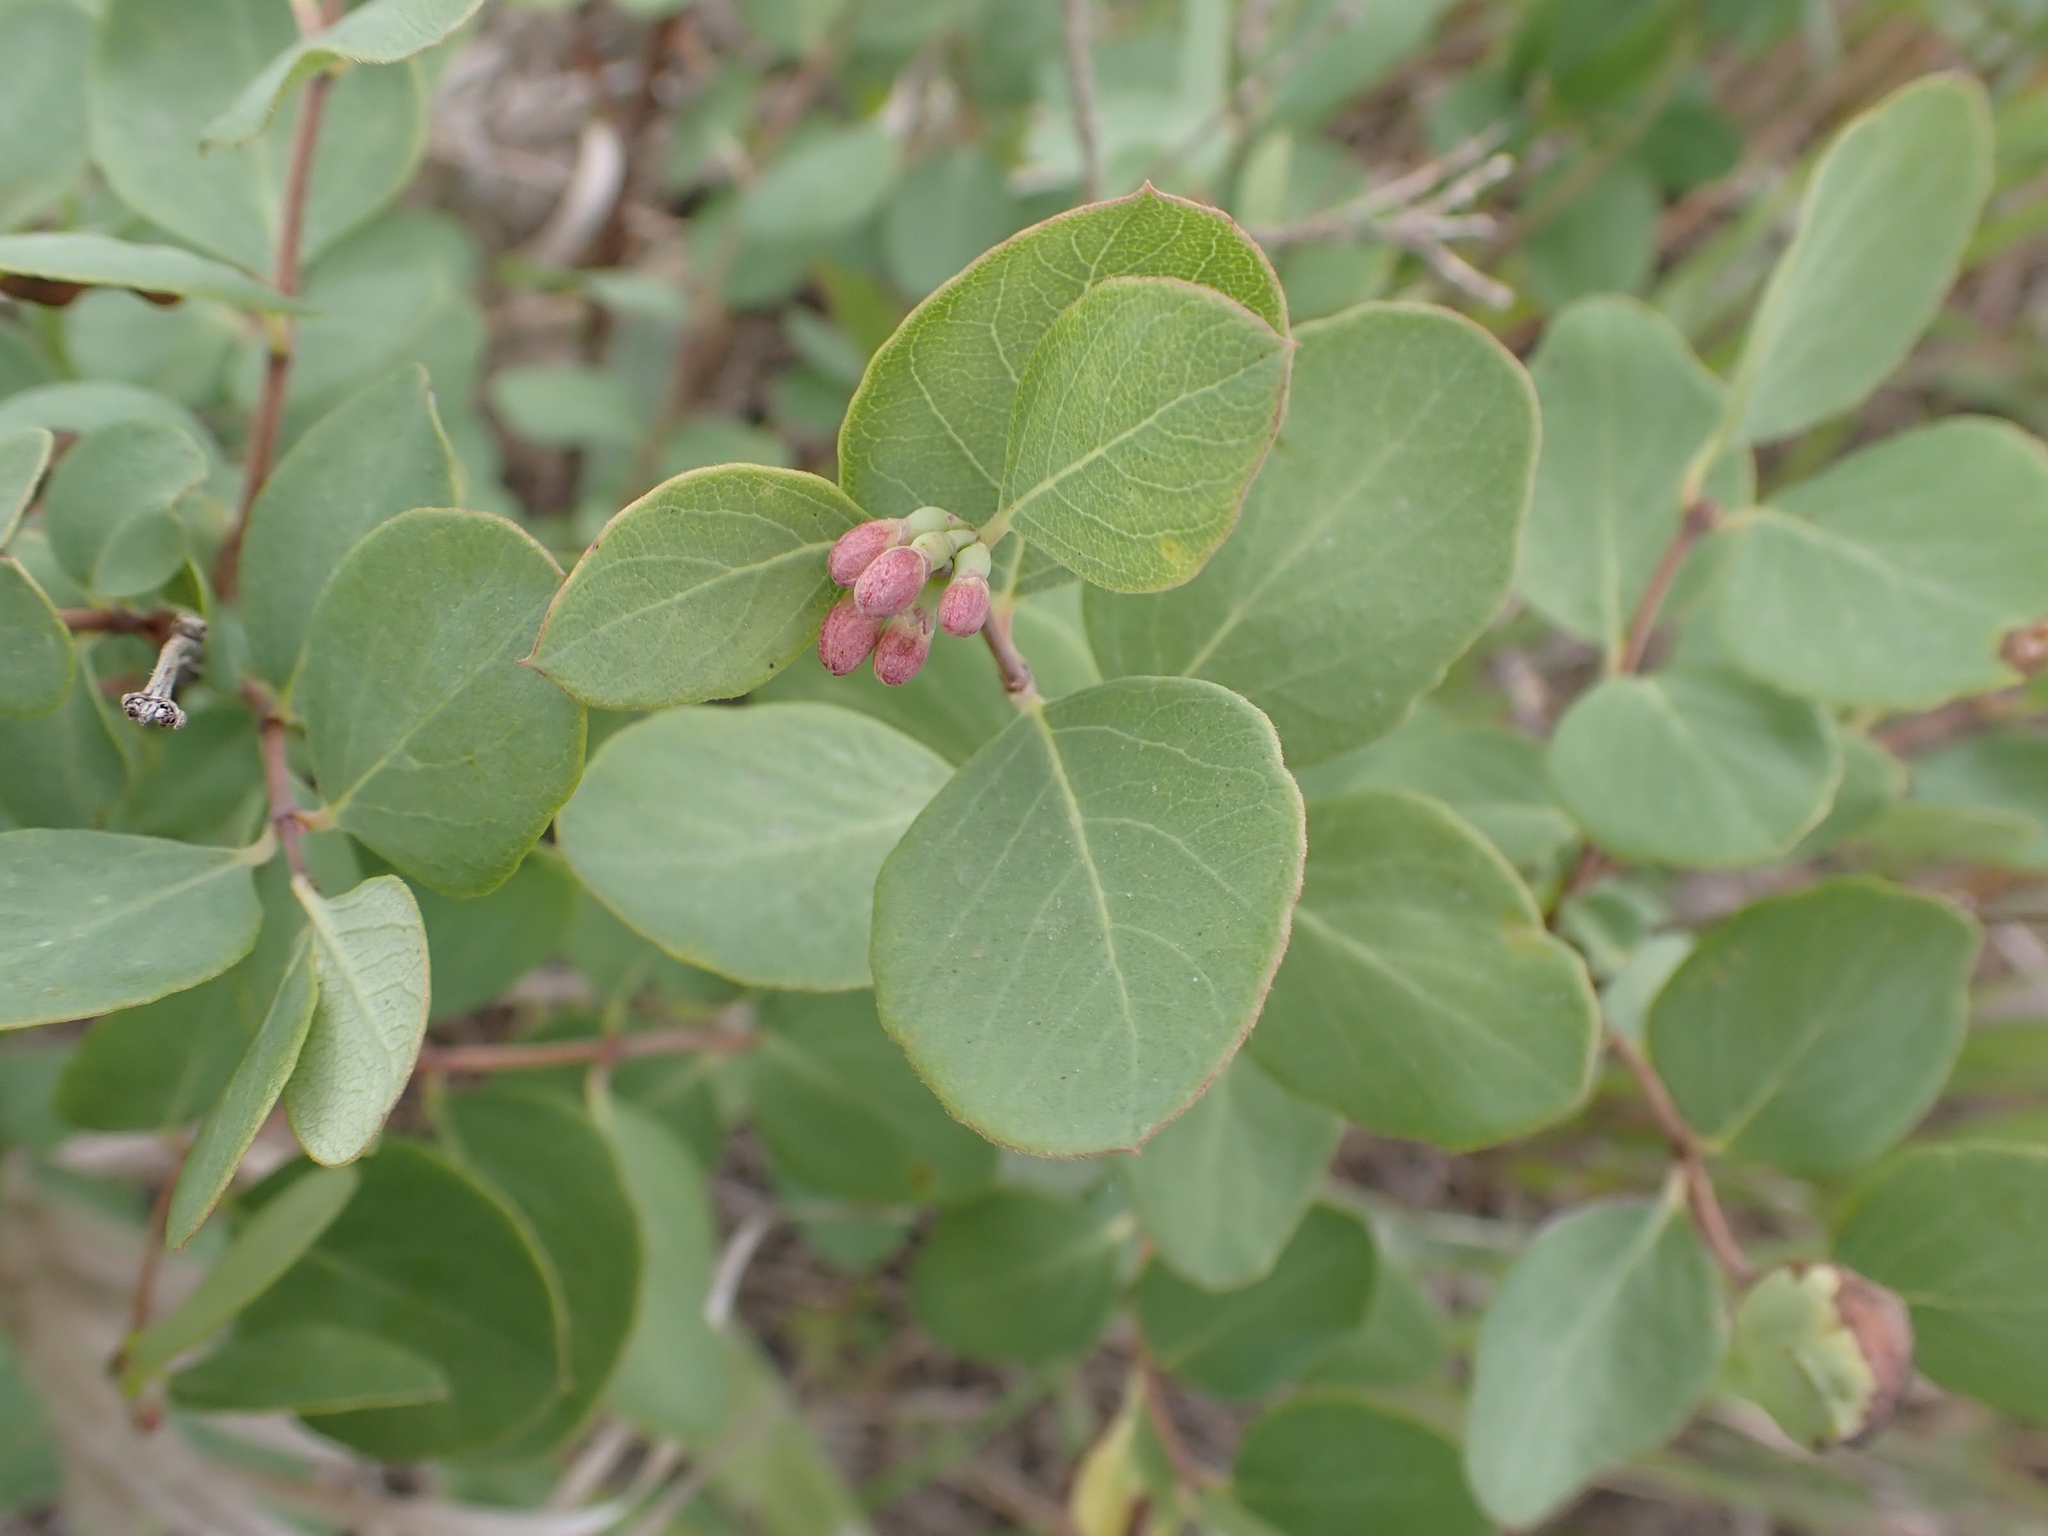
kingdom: Plantae
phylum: Tracheophyta
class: Magnoliopsida
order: Dipsacales
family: Caprifoliaceae
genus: Symphoricarpos
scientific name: Symphoricarpos occidentalis
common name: Wolfberry
